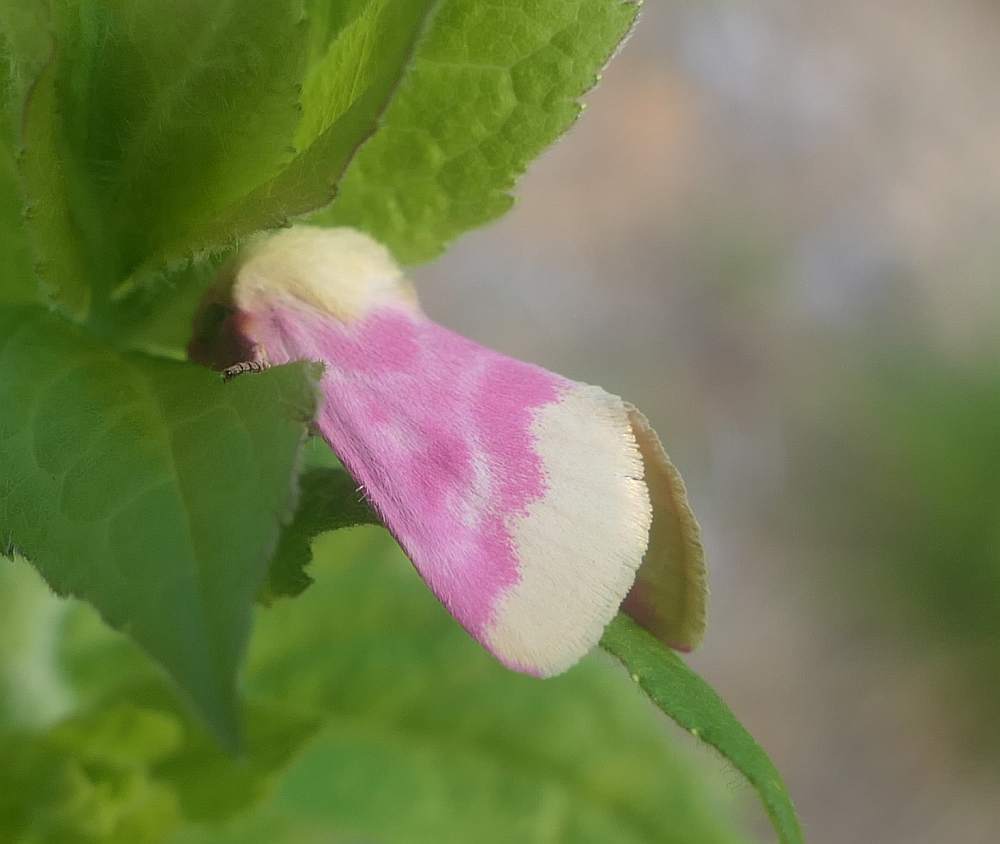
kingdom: Animalia
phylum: Arthropoda
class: Insecta
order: Lepidoptera
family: Noctuidae
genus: Schinia
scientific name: Schinia florida
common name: Primrose moth
